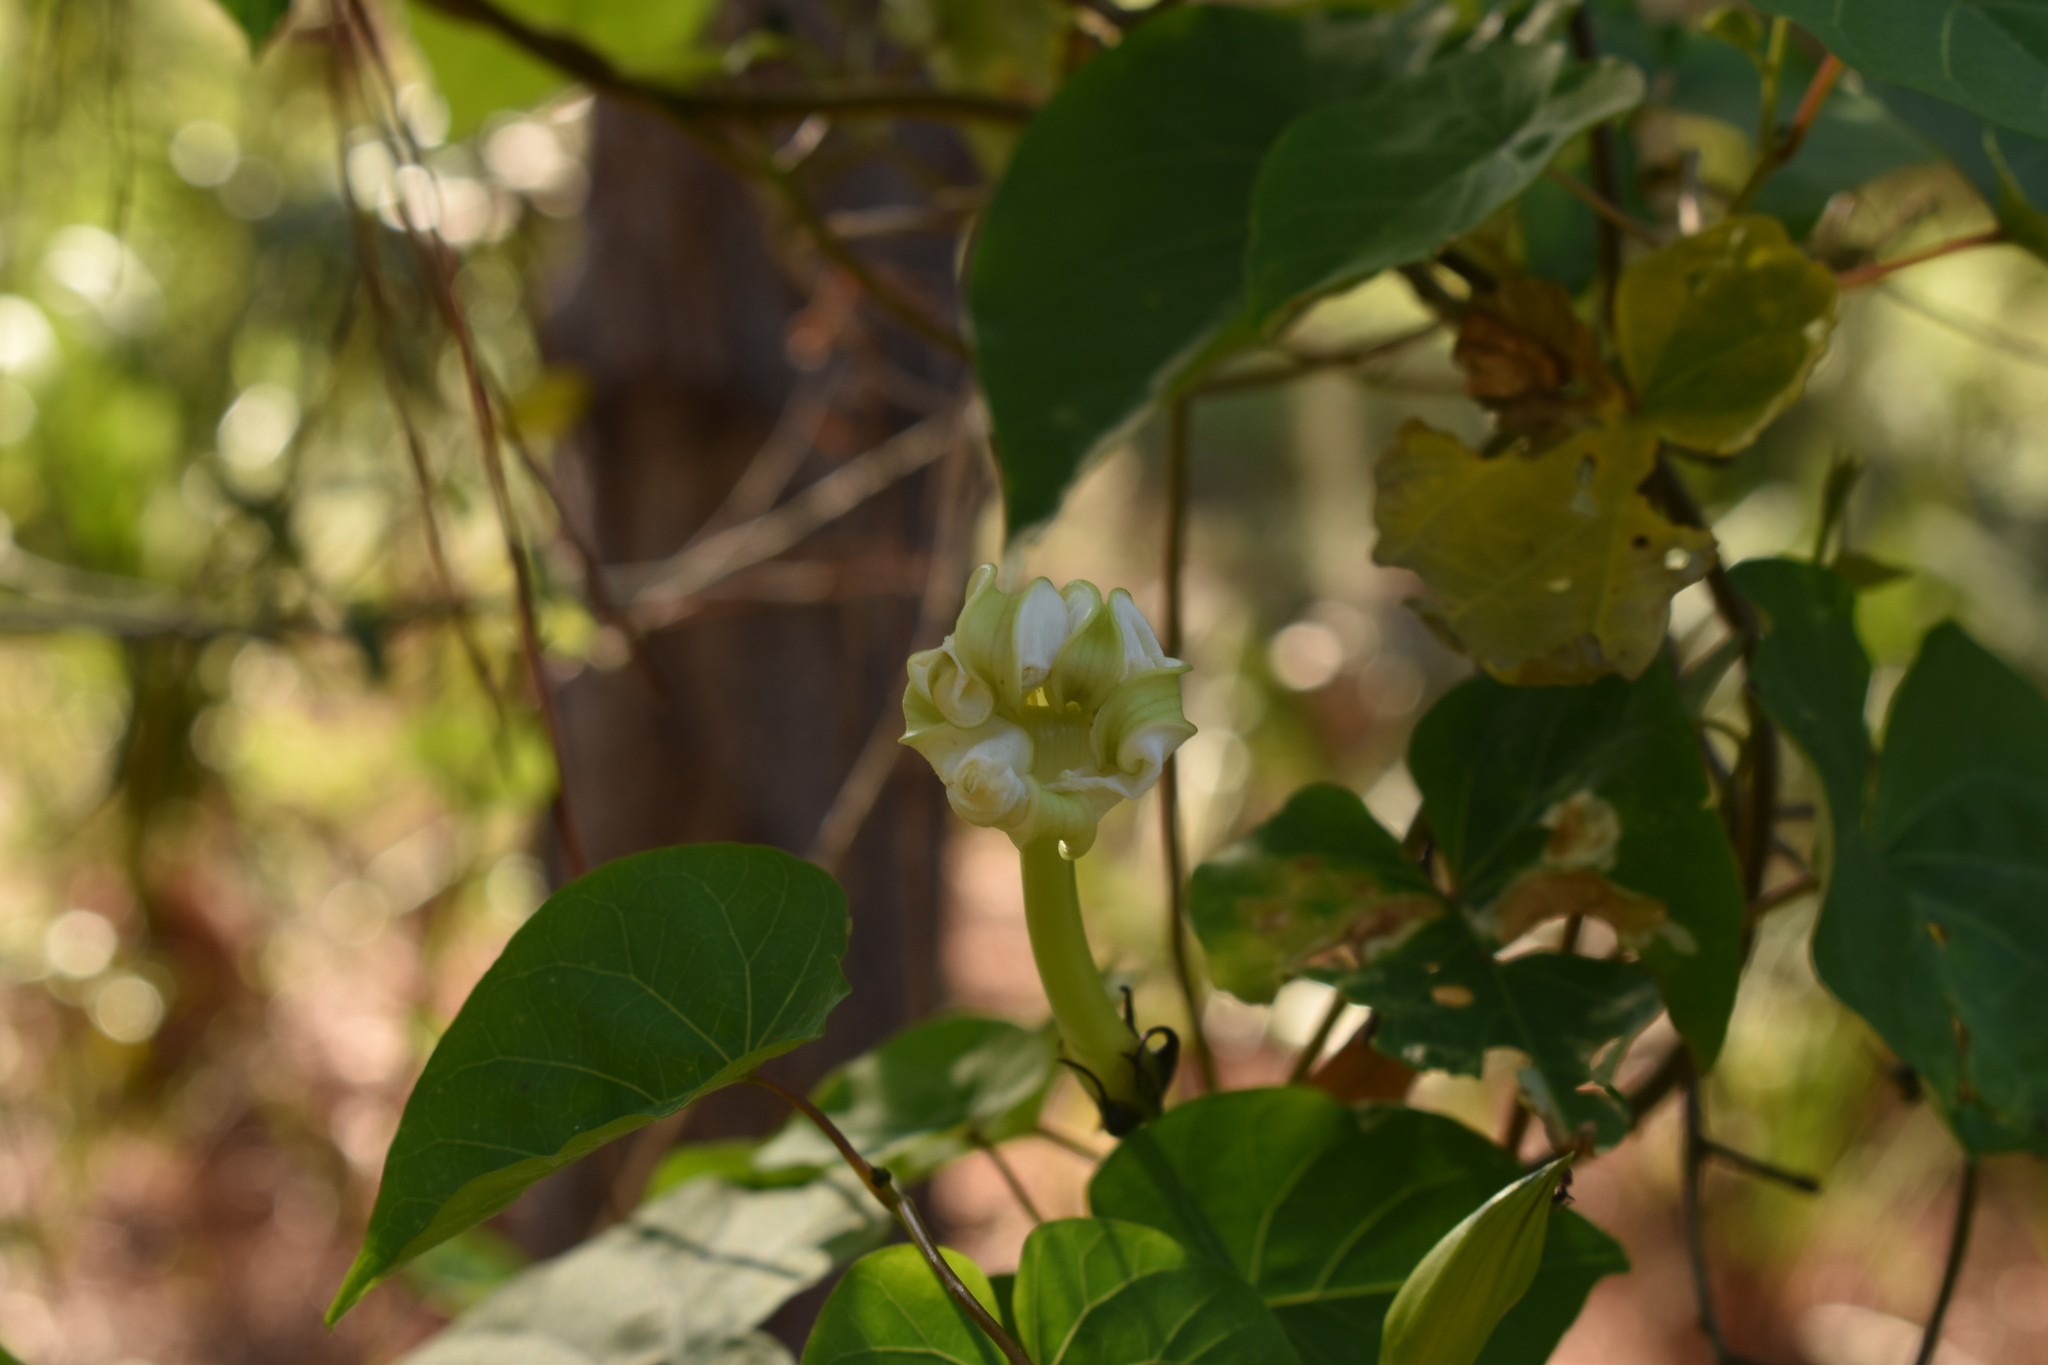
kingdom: Plantae
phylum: Tracheophyta
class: Magnoliopsida
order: Solanales
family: Convolvulaceae
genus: Ipomoea
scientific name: Ipomoea alba
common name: Moonflower
